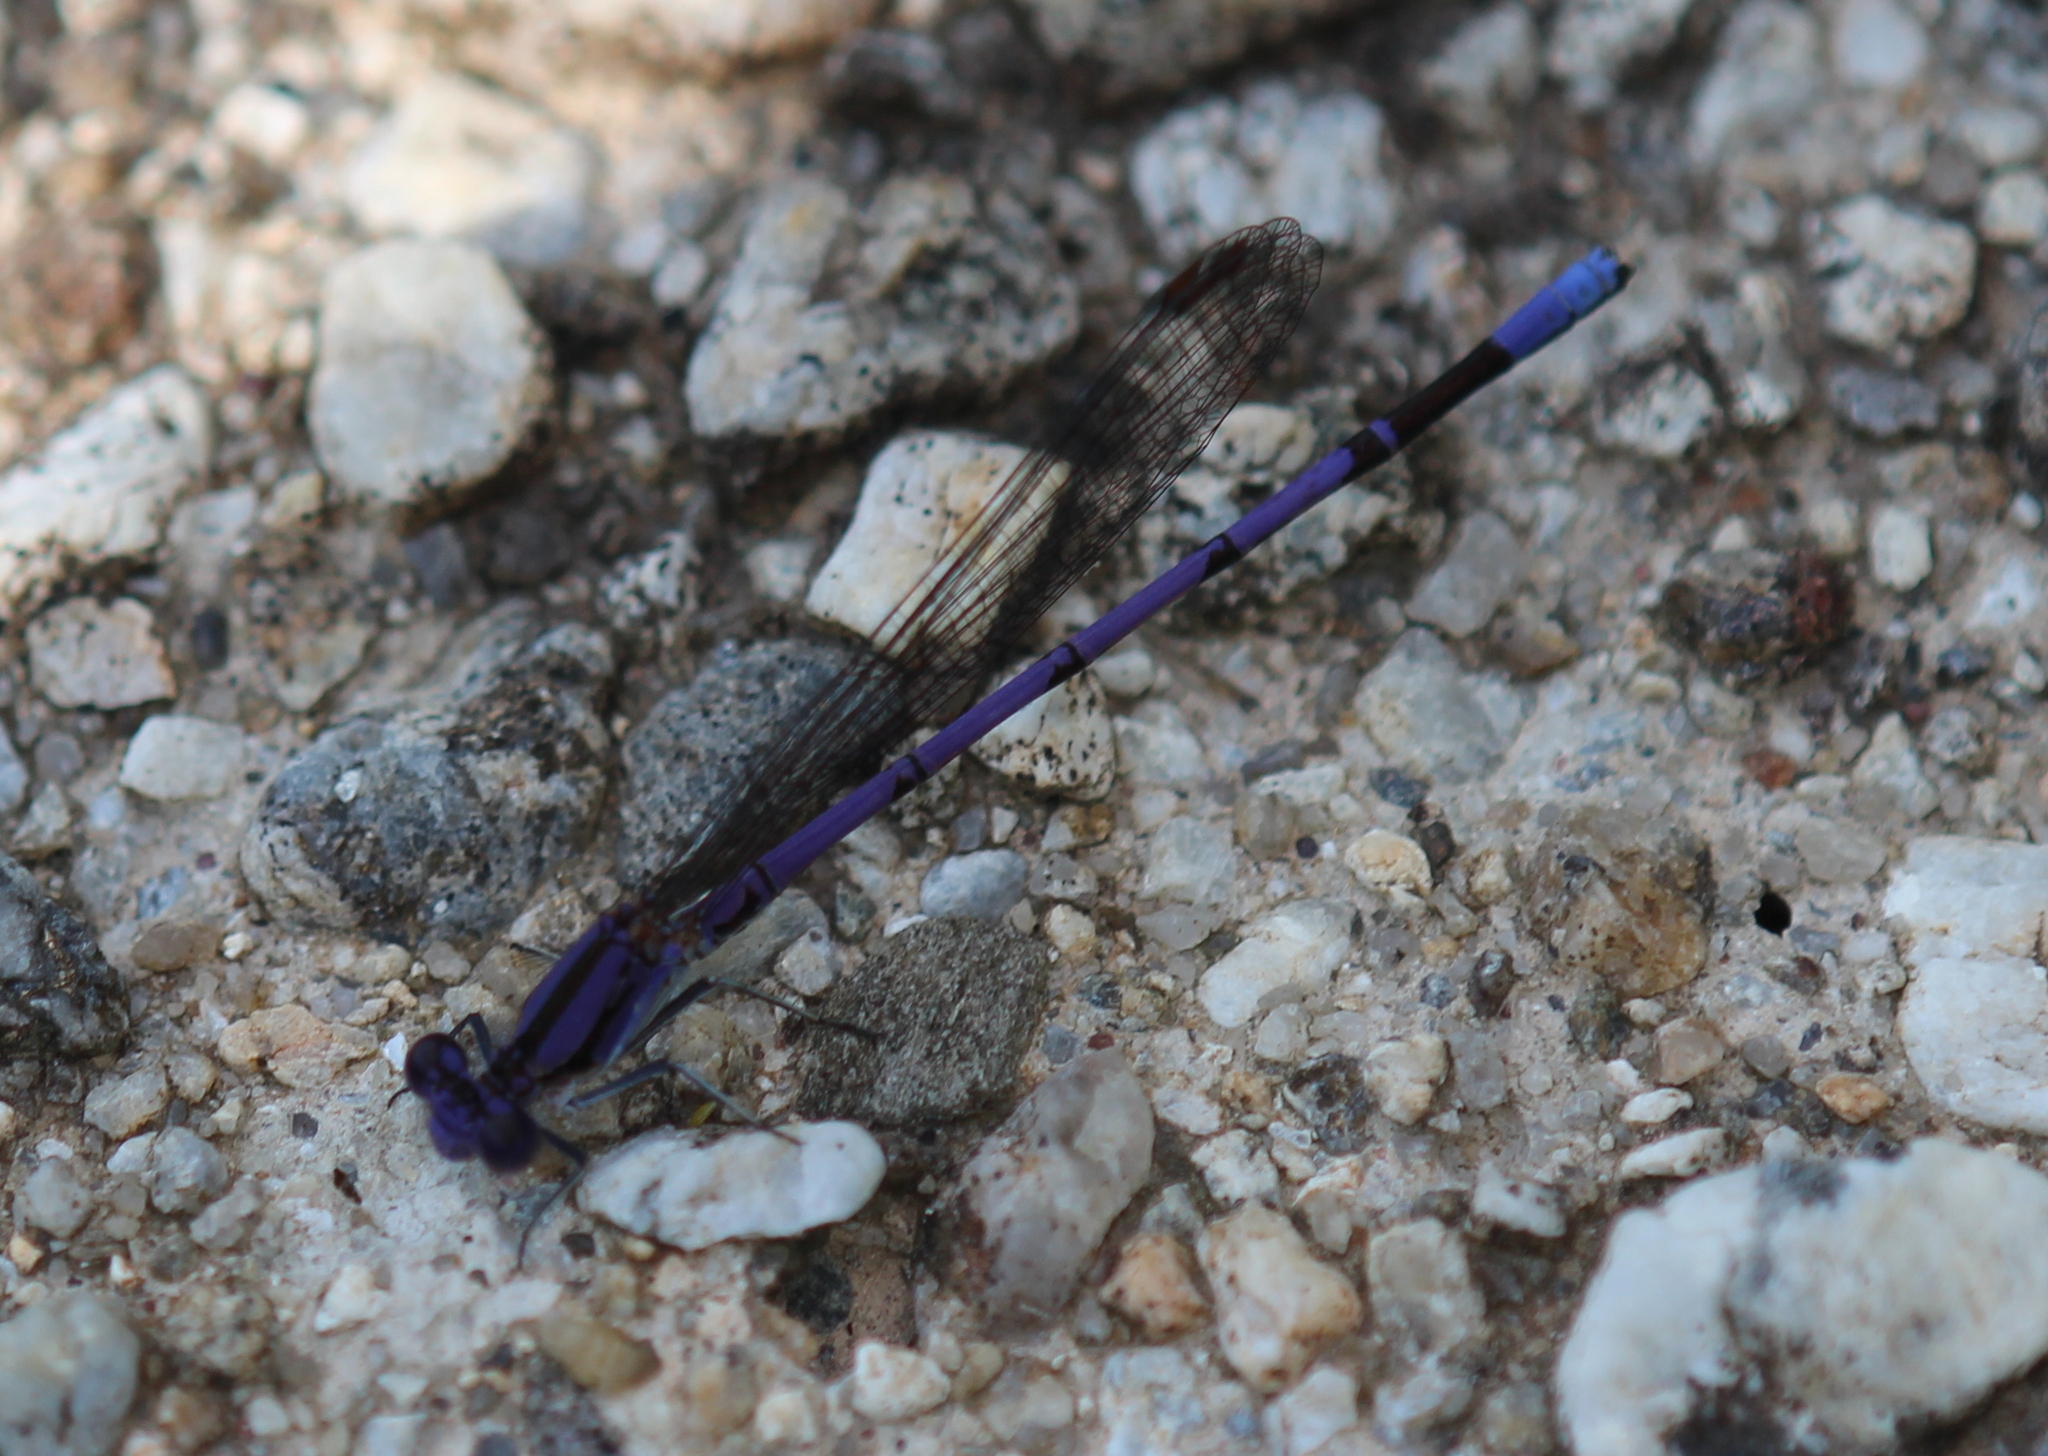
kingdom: Animalia
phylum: Arthropoda
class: Insecta
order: Odonata
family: Coenagrionidae
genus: Argia
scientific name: Argia fumipennis
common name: Variable dancer
